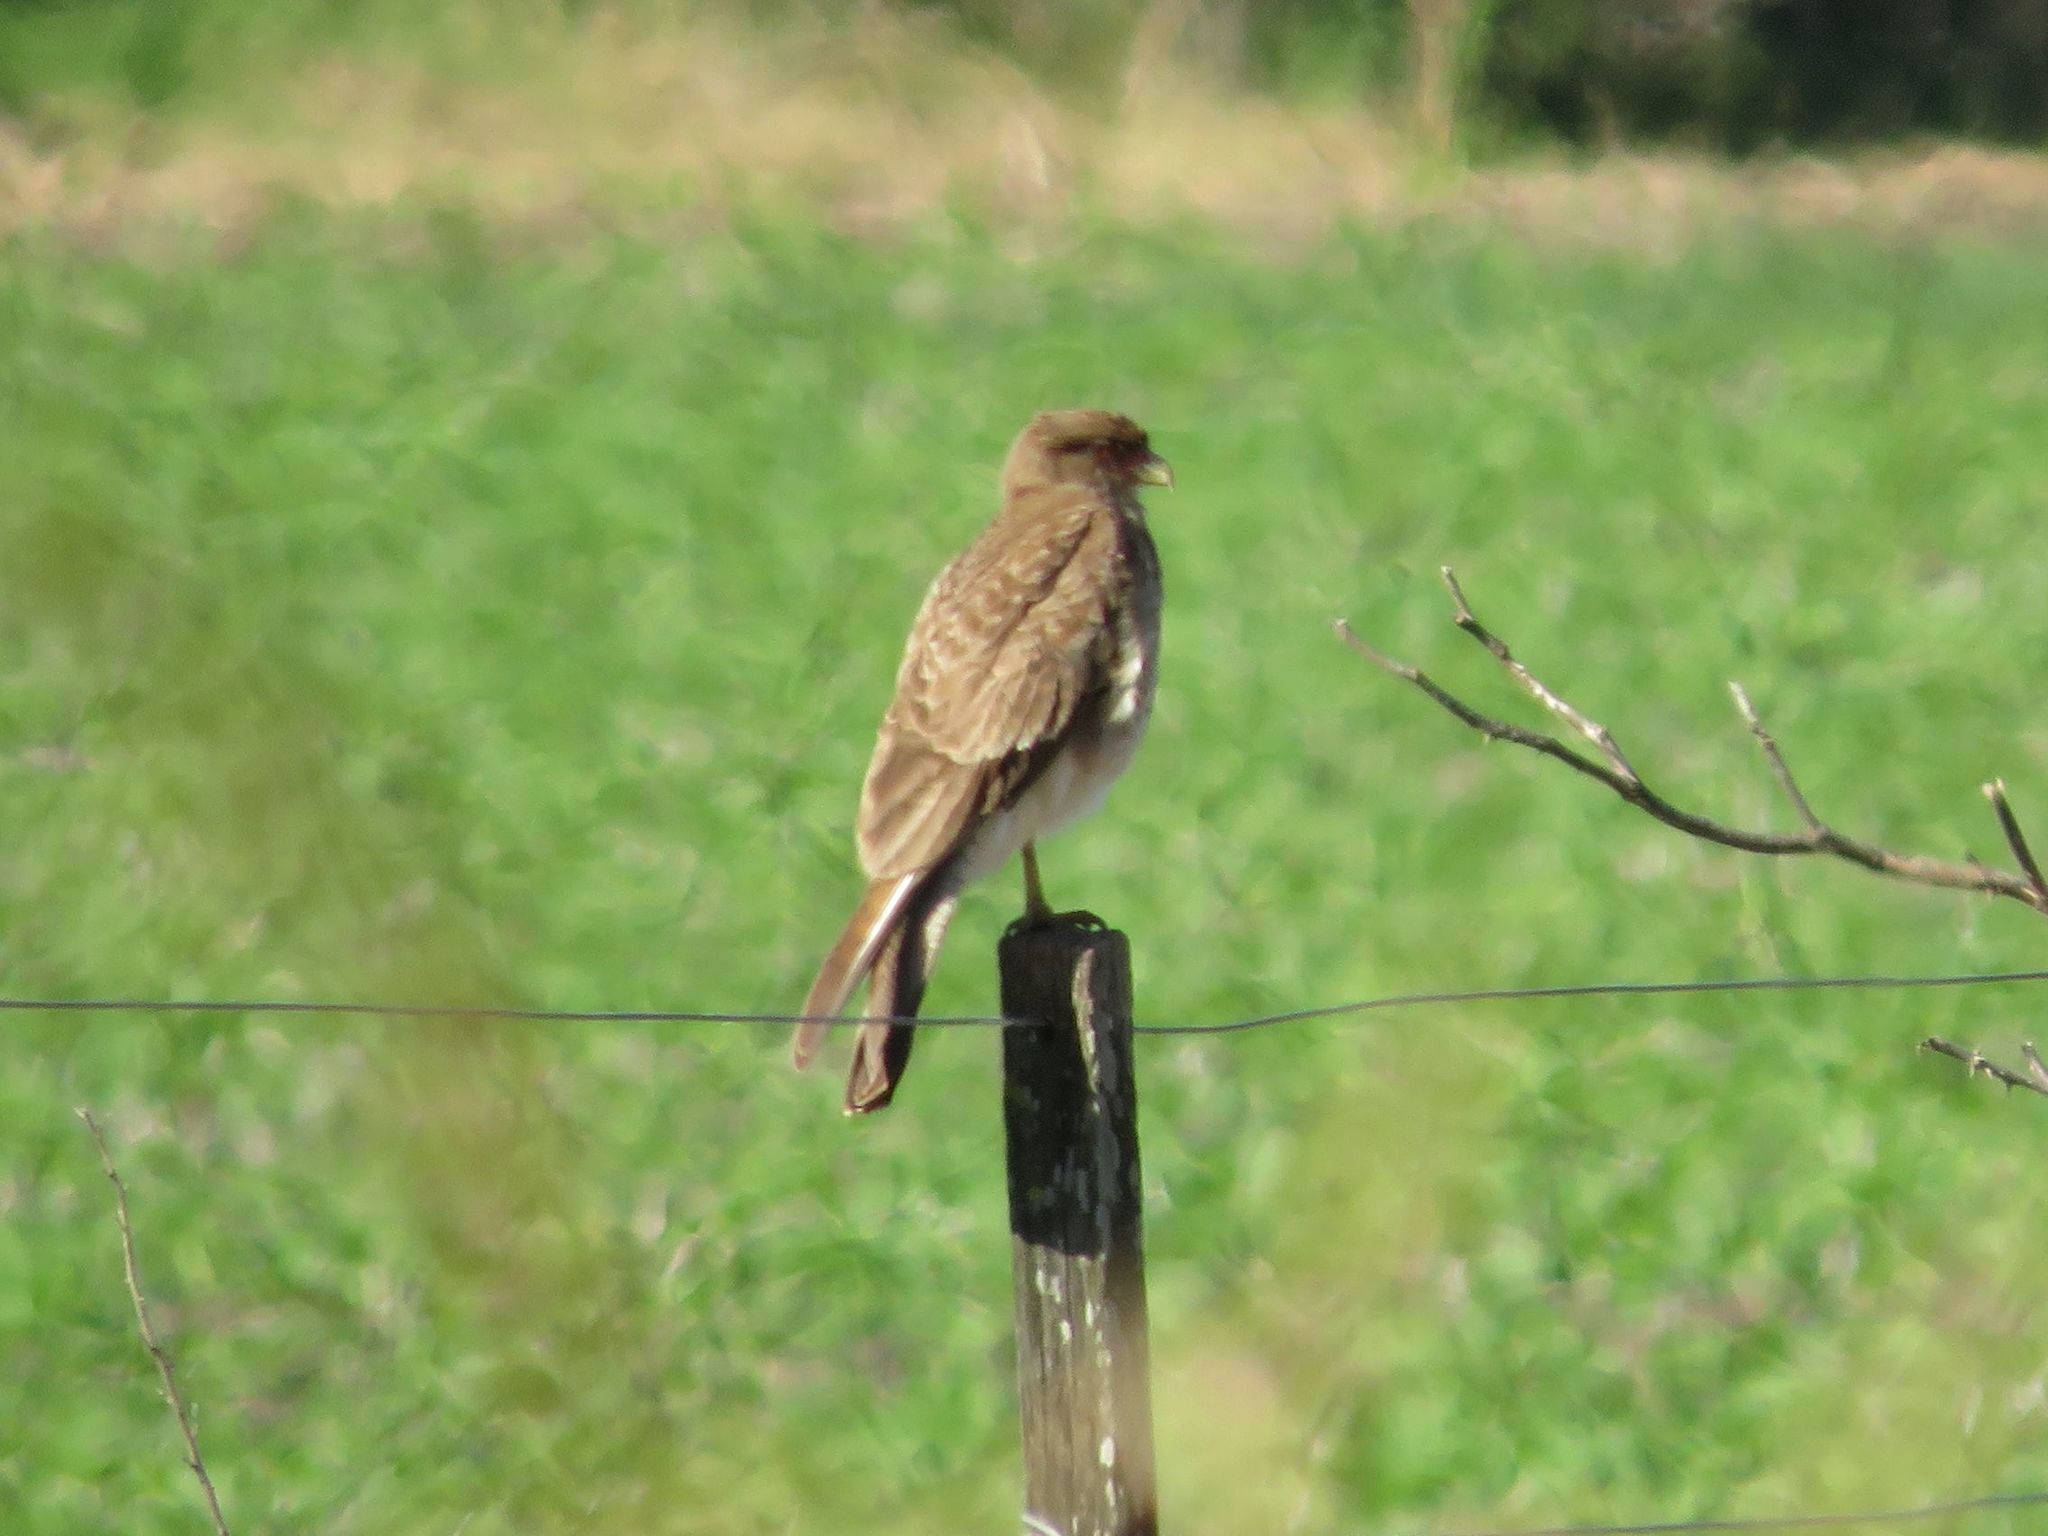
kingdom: Animalia
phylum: Chordata
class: Aves
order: Falconiformes
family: Falconidae
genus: Daptrius
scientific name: Daptrius
